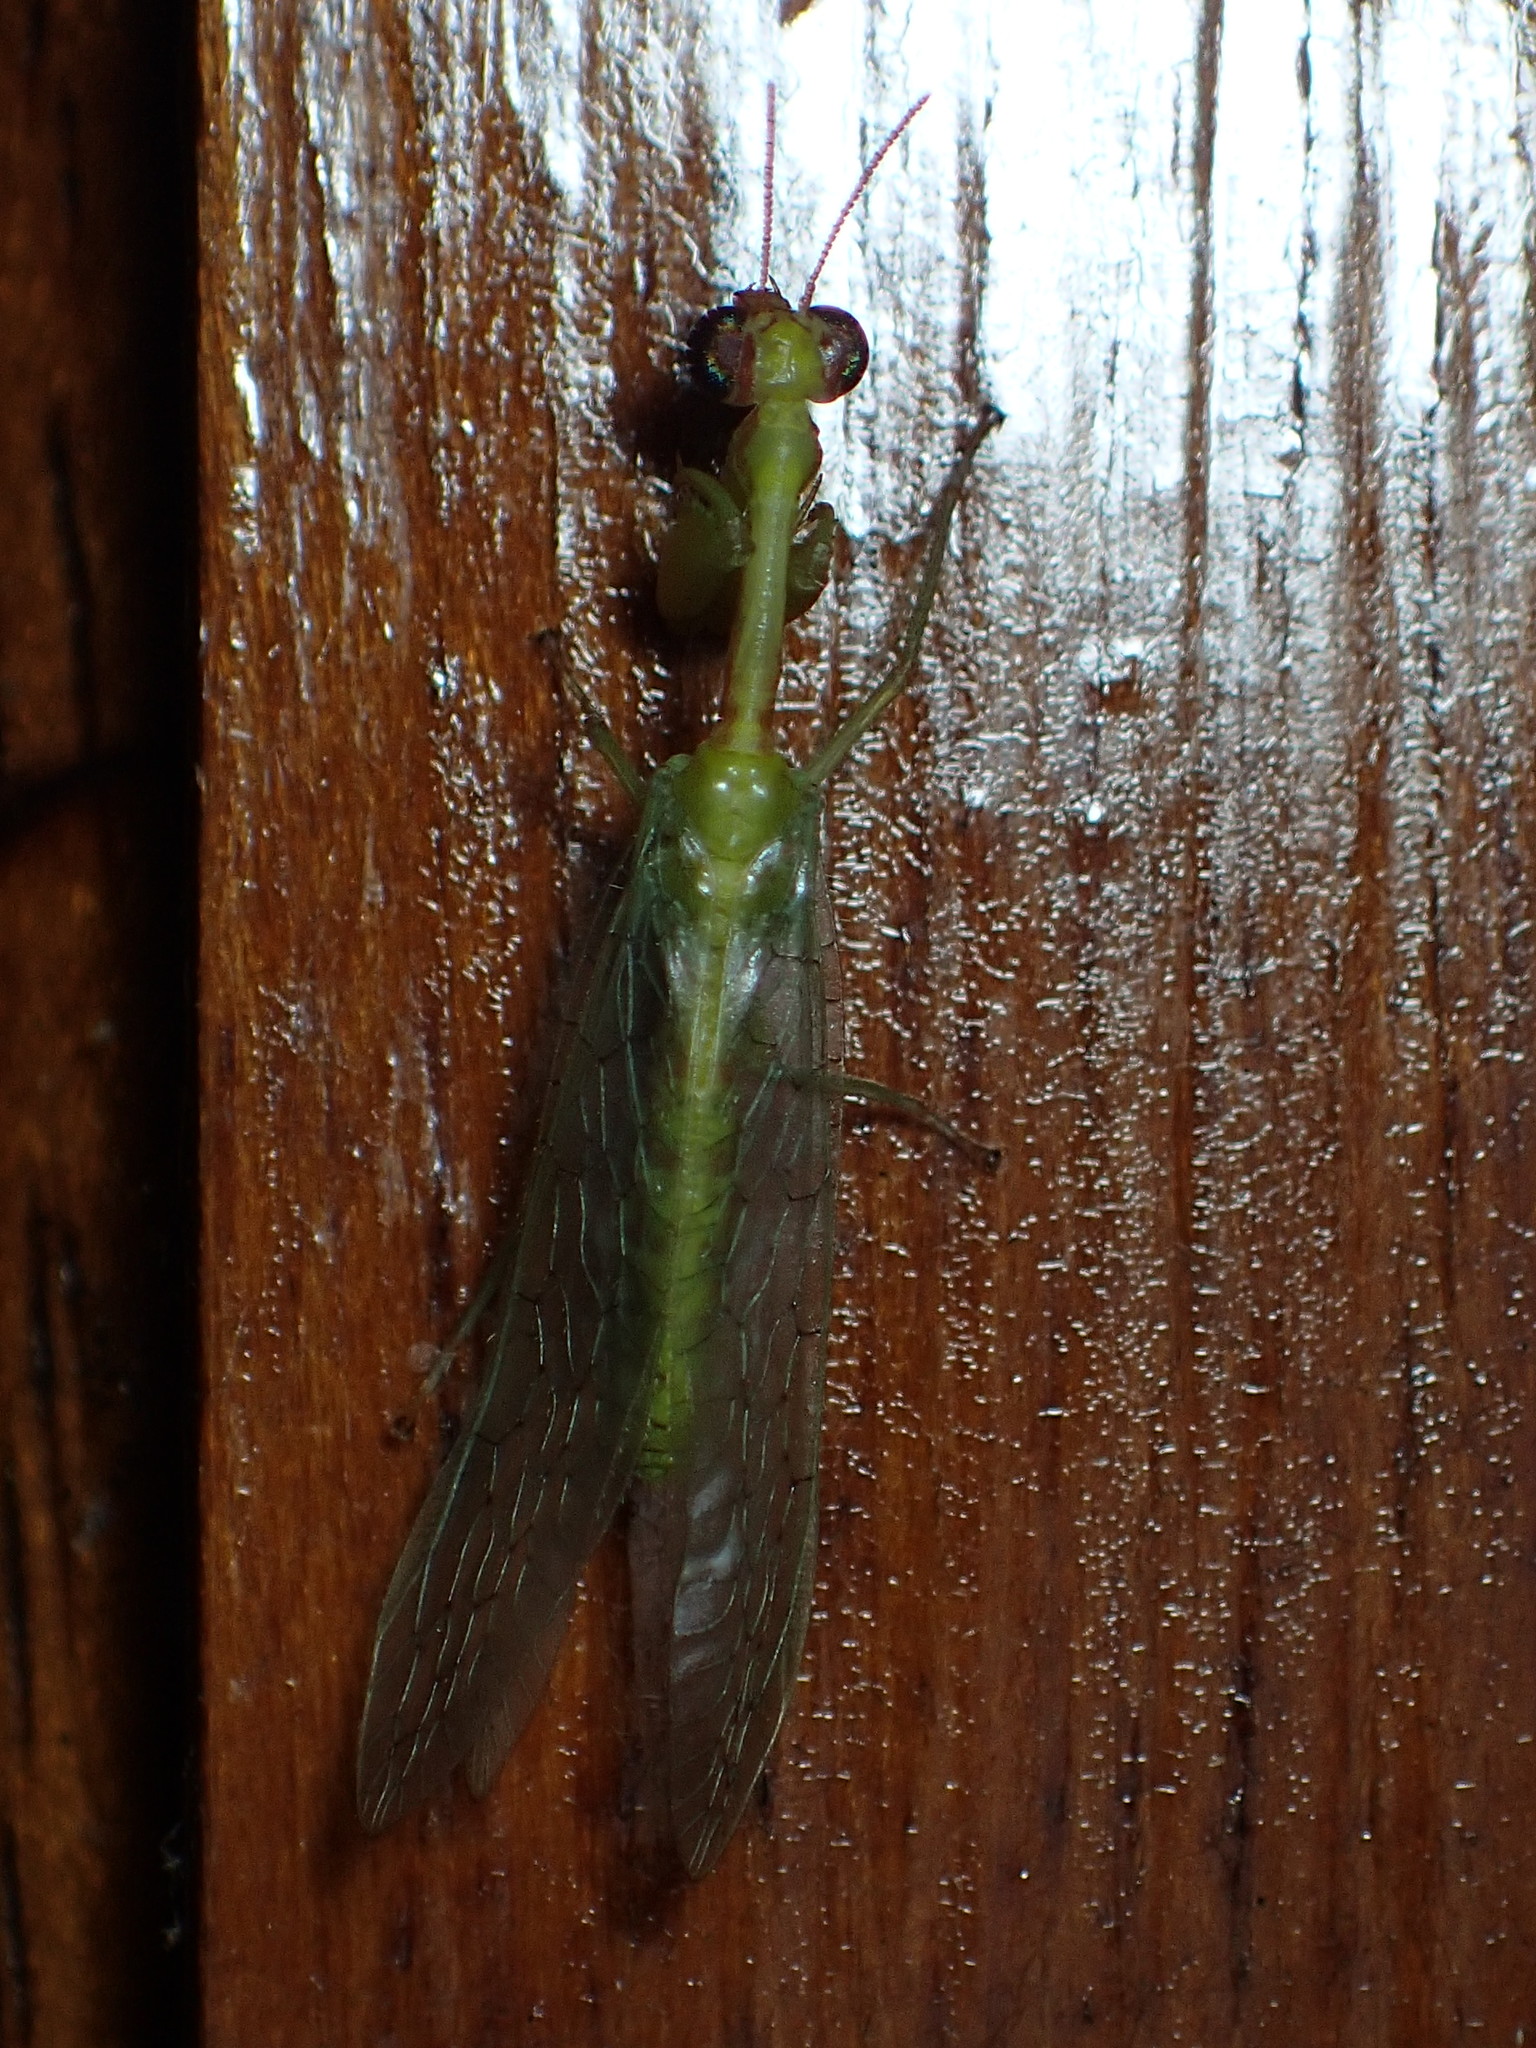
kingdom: Animalia
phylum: Arthropoda
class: Insecta
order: Neuroptera
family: Mantispidae
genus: Zeugomantispa
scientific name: Zeugomantispa minuta
